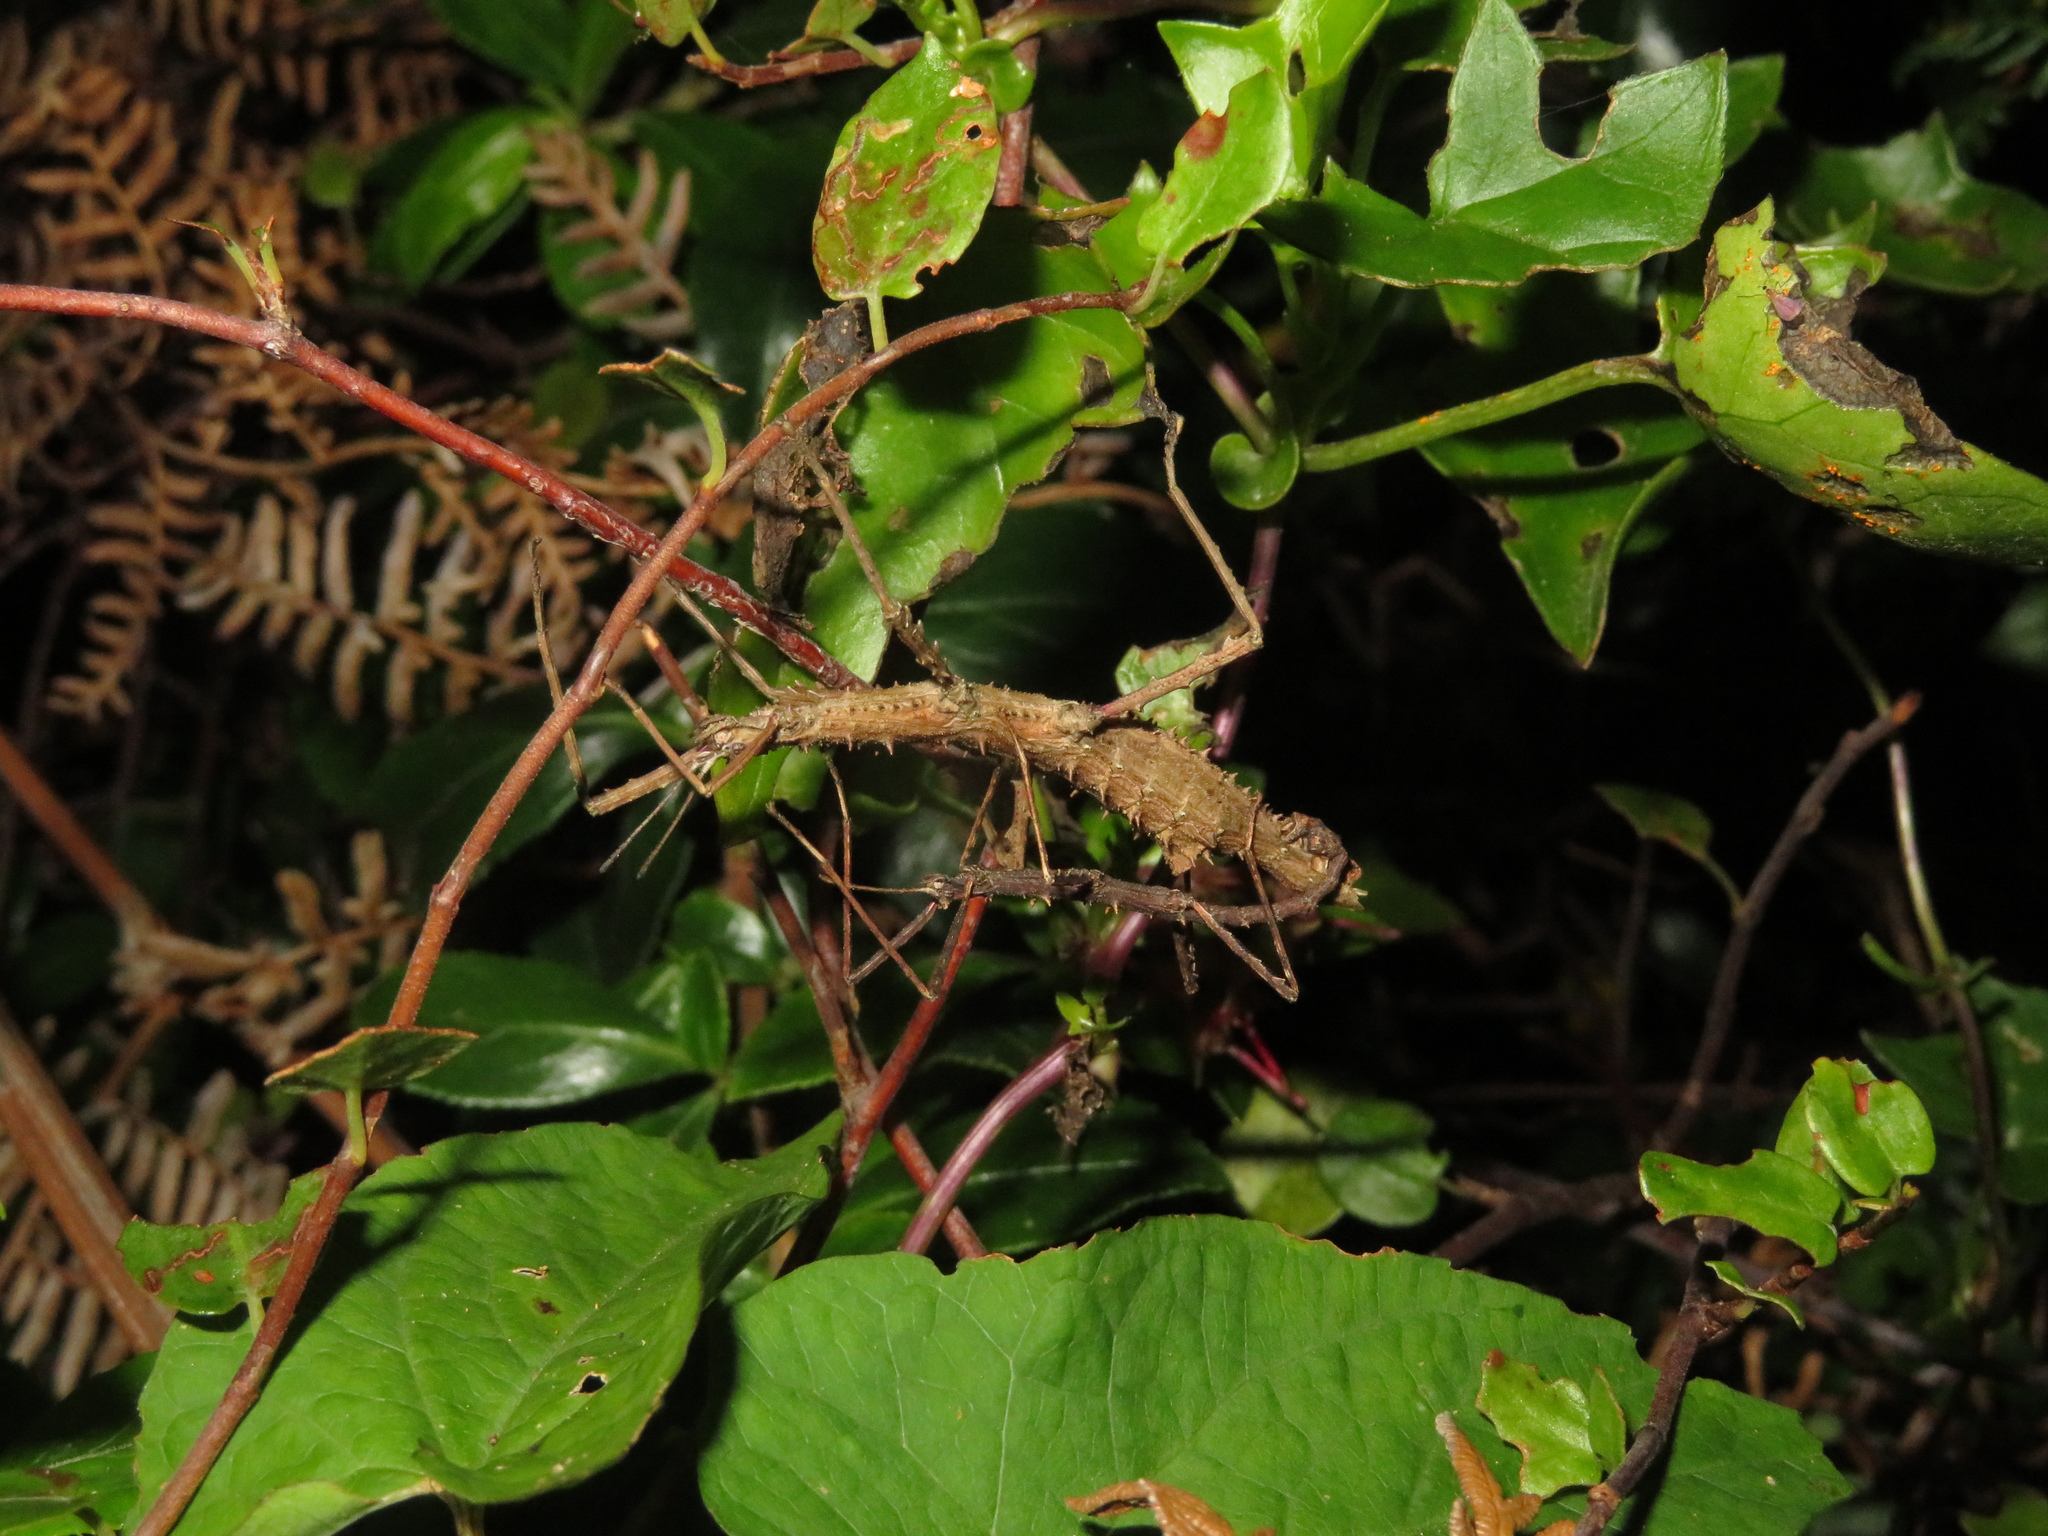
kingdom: Animalia
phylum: Arthropoda
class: Insecta
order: Phasmida
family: Phasmatidae
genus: Micrarchus
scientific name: Micrarchus hystriculeus
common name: The lesser spiny stick insect
